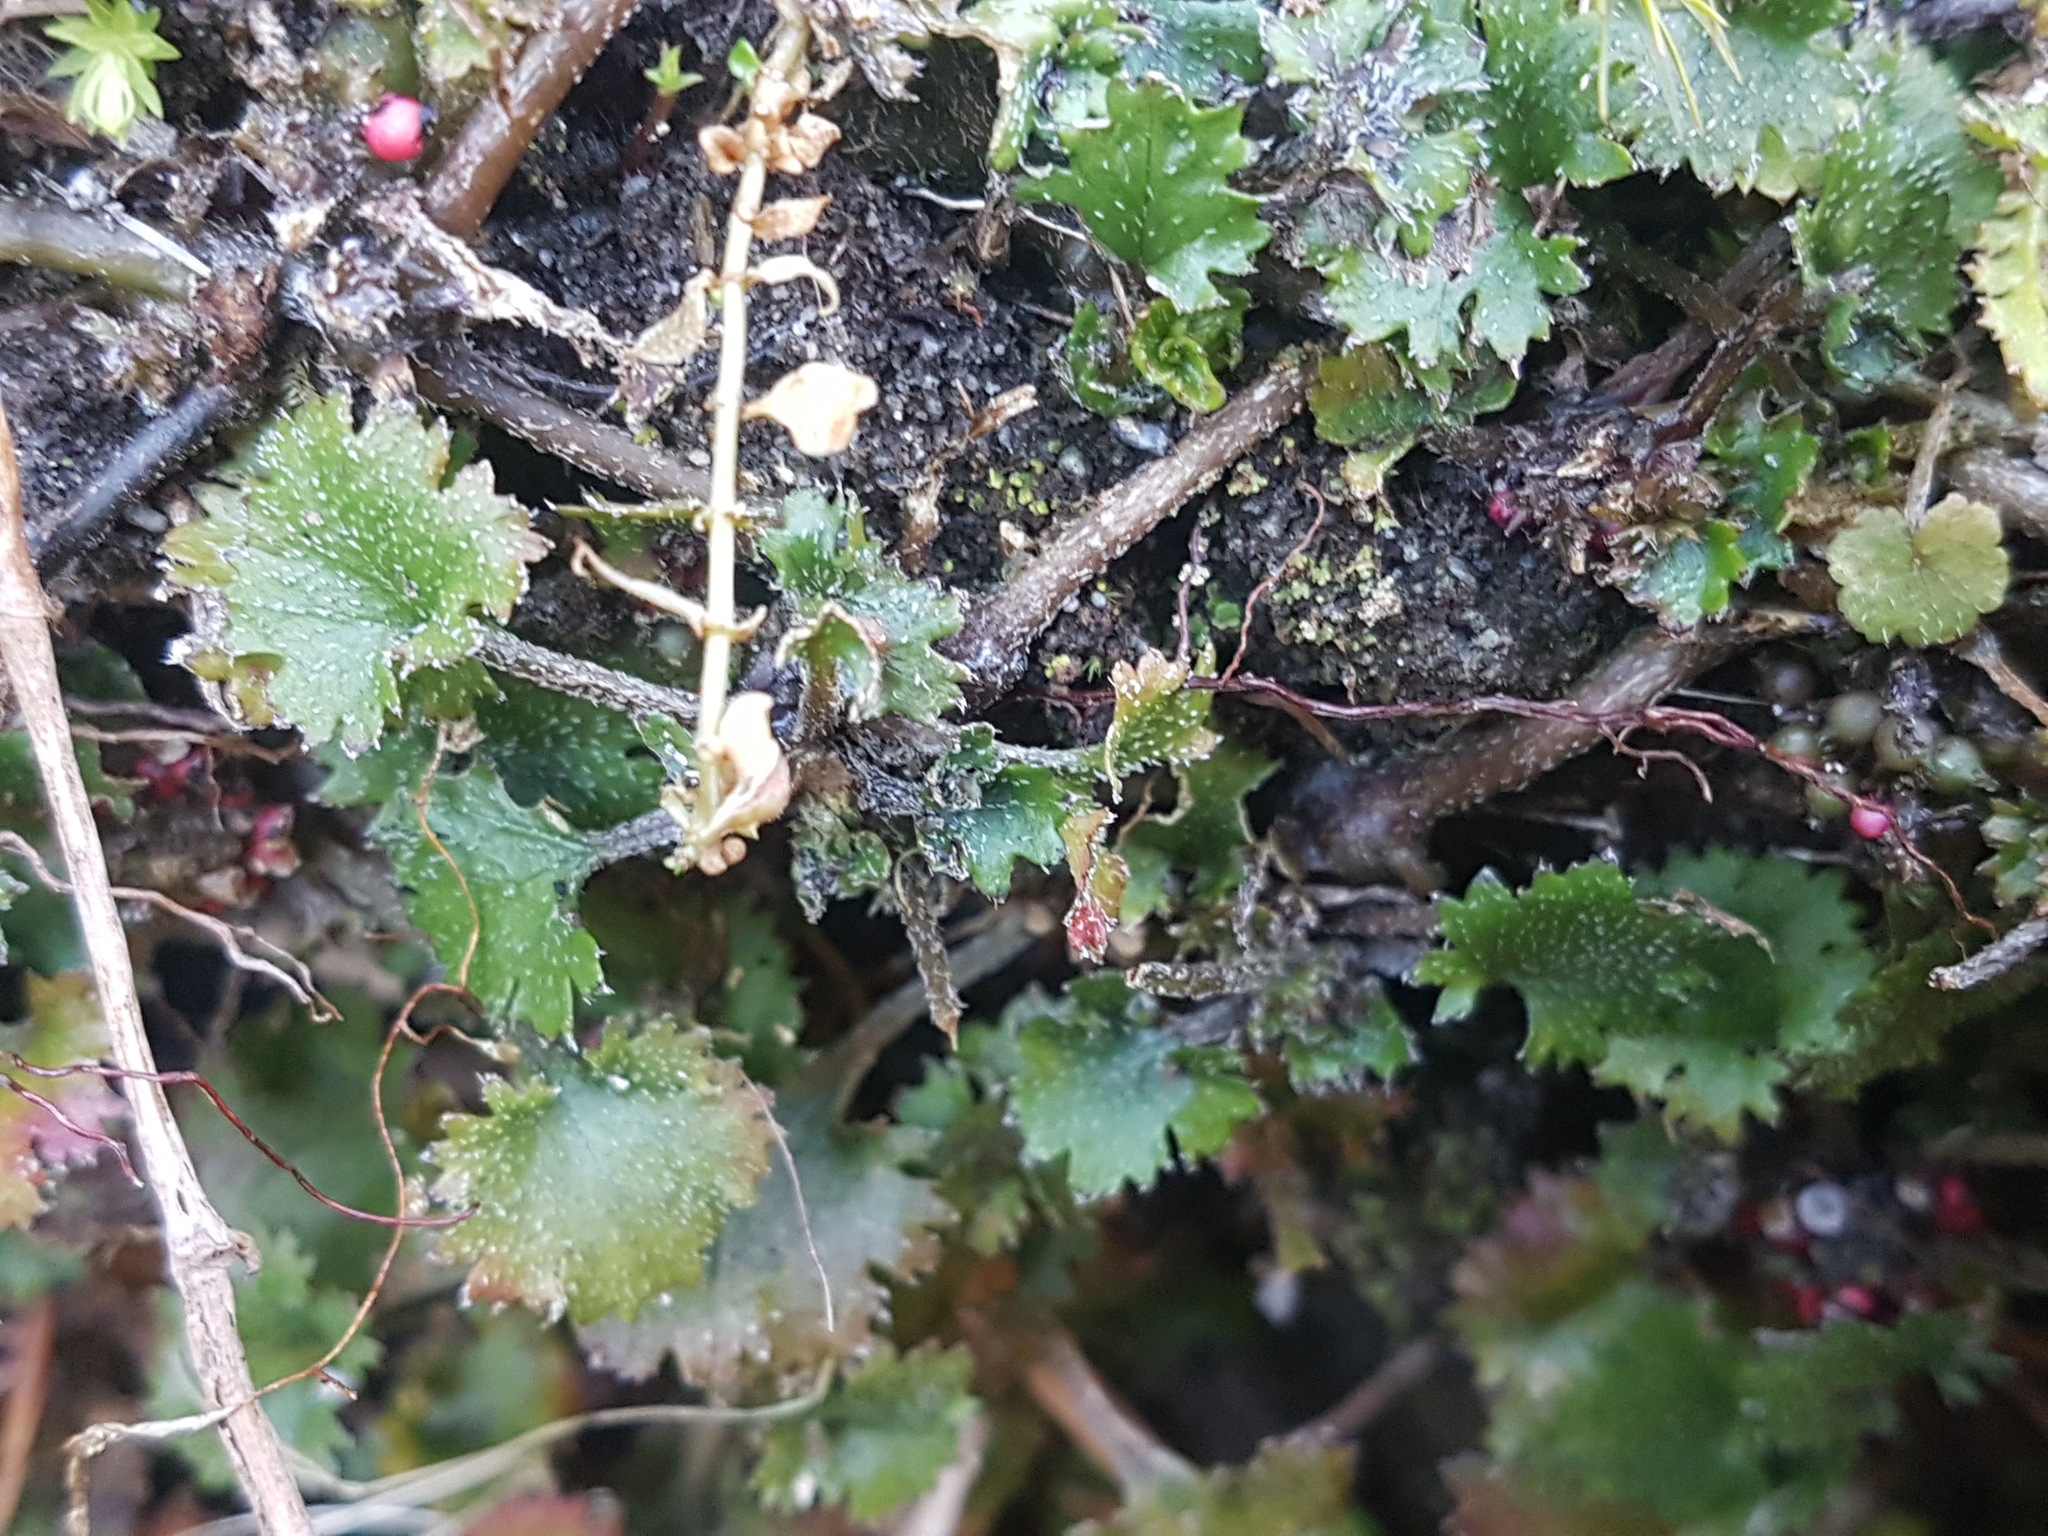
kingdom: Plantae
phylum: Tracheophyta
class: Magnoliopsida
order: Gunnerales
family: Gunneraceae
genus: Gunnera
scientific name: Gunnera monoica
